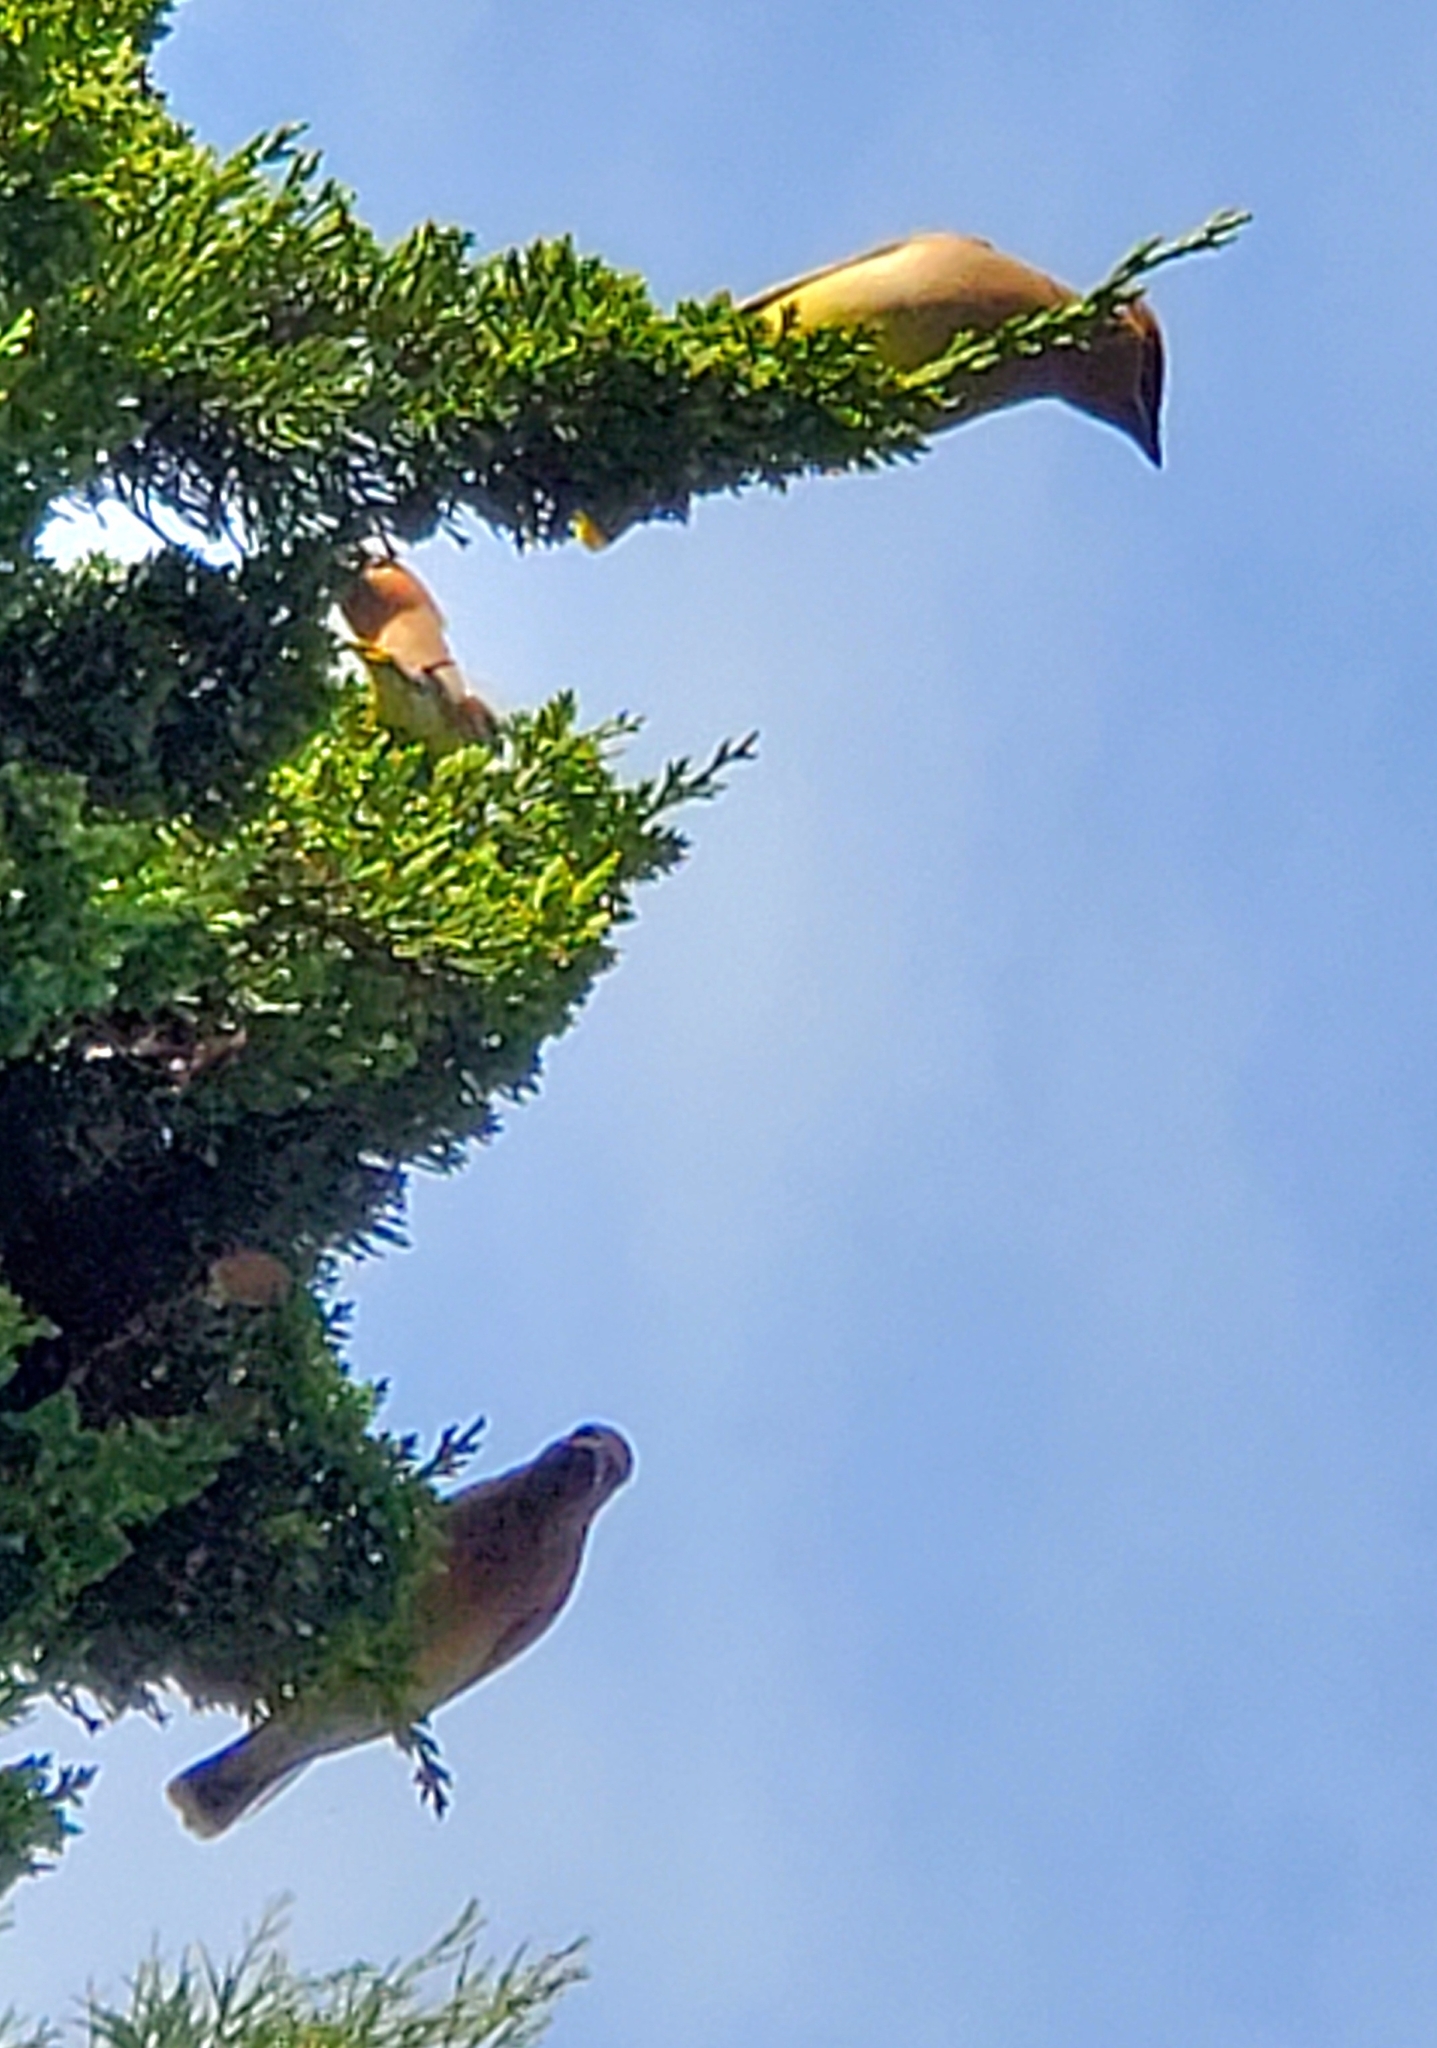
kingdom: Animalia
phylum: Chordata
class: Aves
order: Passeriformes
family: Bombycillidae
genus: Bombycilla
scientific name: Bombycilla cedrorum
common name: Cedar waxwing
